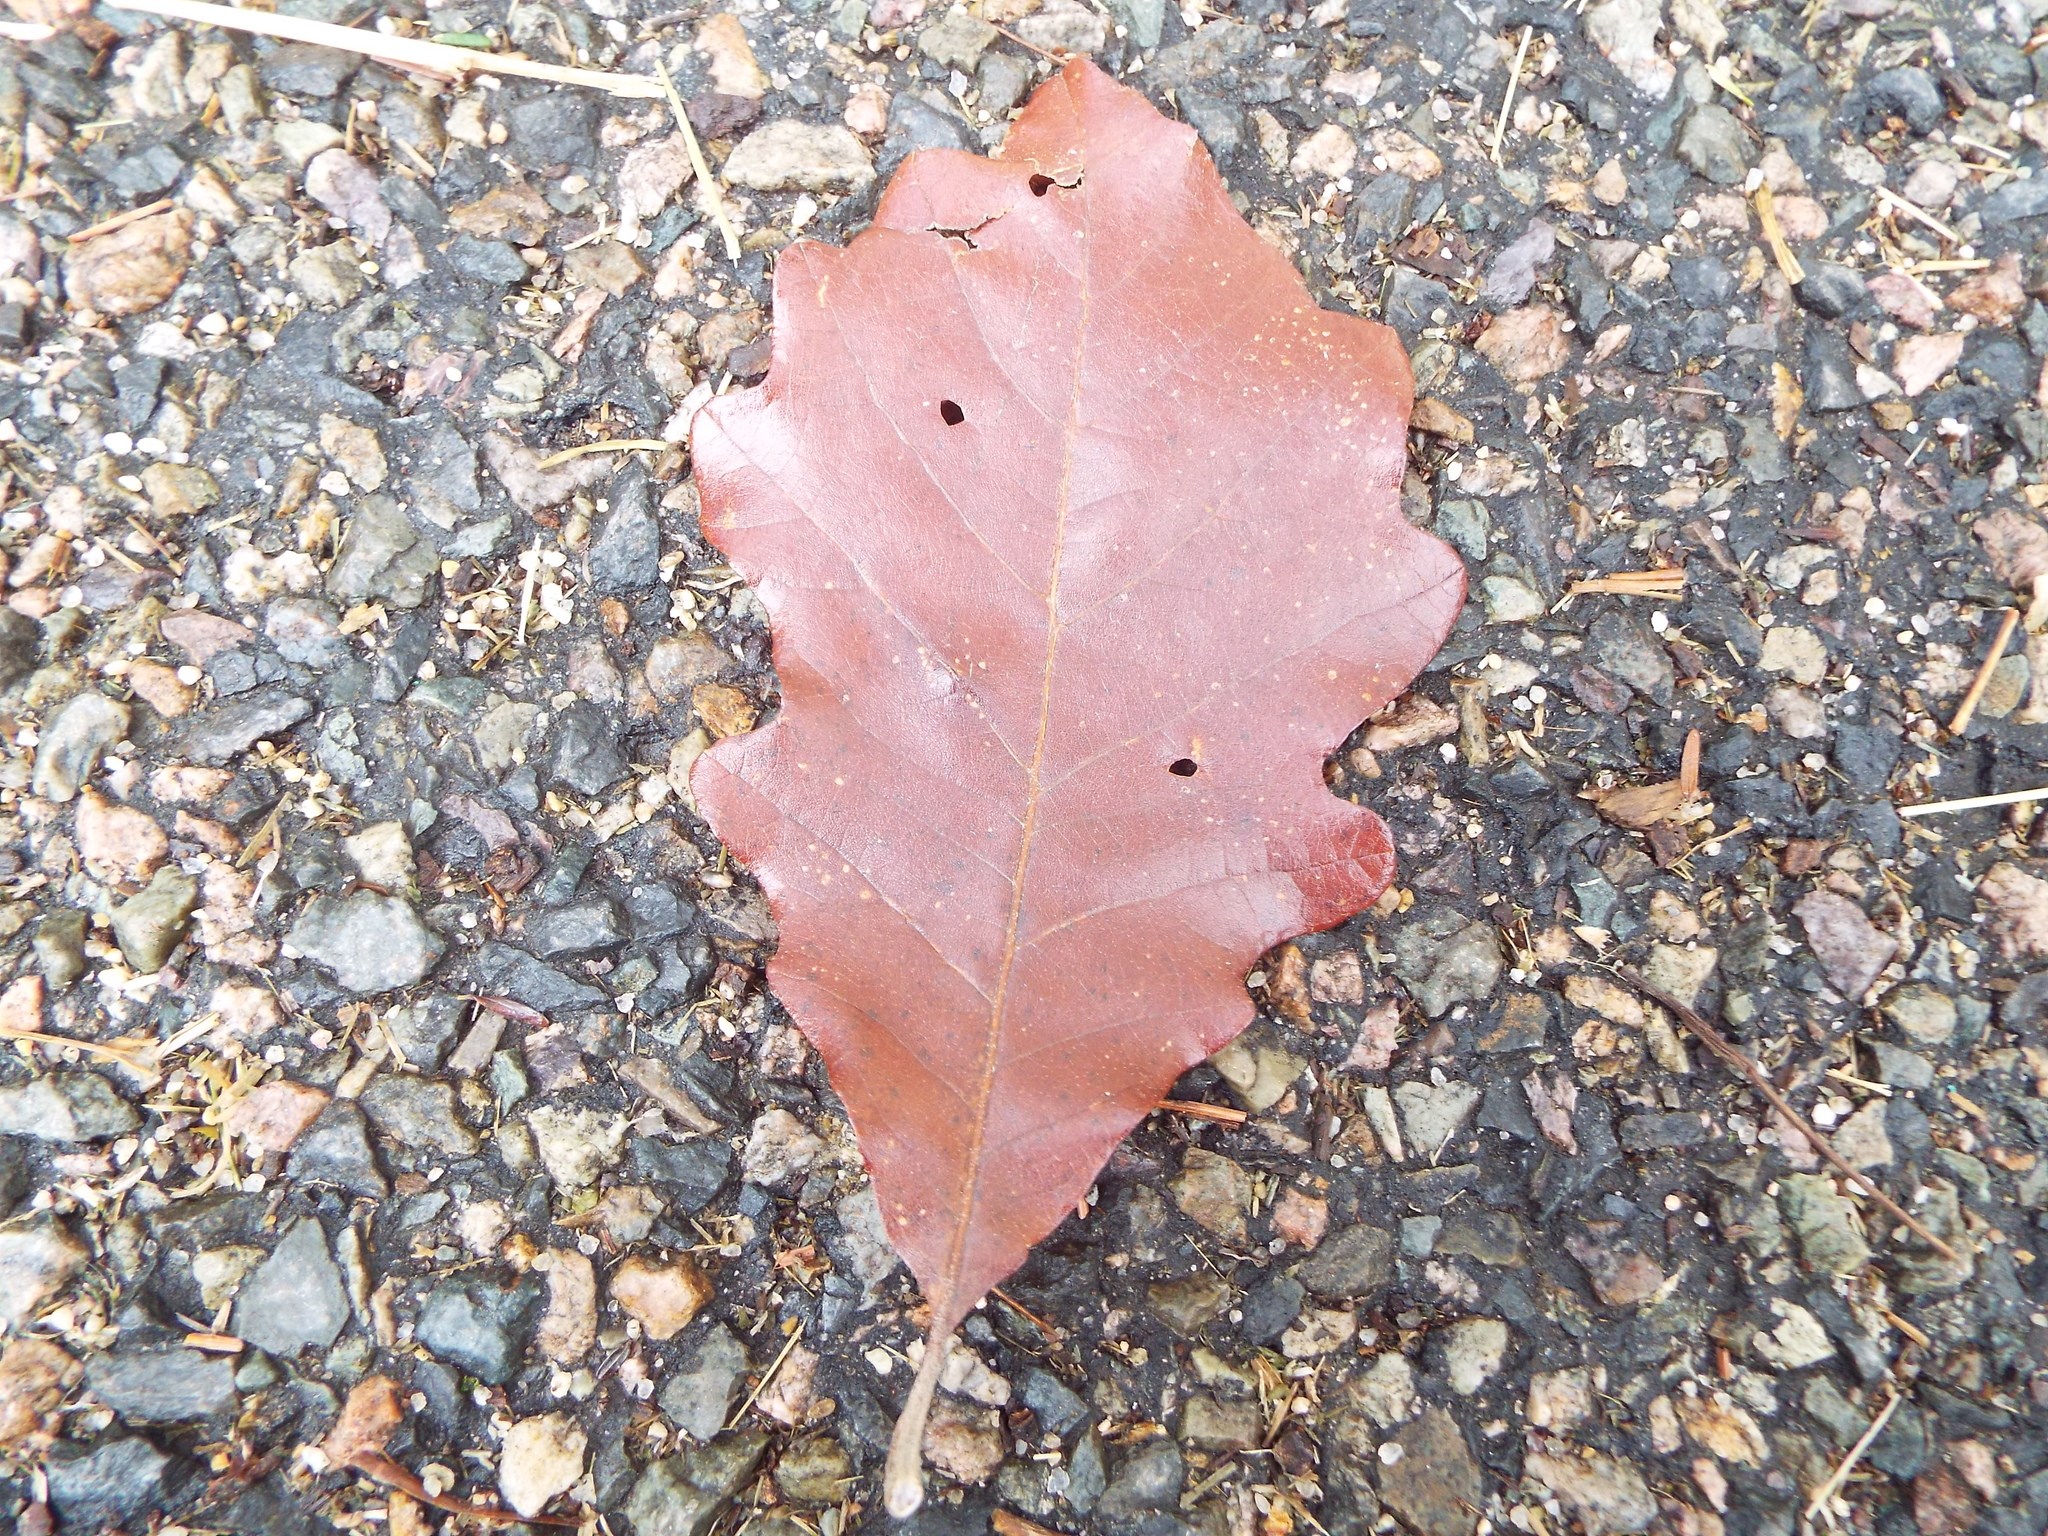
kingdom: Plantae
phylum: Tracheophyta
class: Magnoliopsida
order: Fagales
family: Fagaceae
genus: Quercus
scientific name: Quercus bicolor
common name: Swamp white oak
